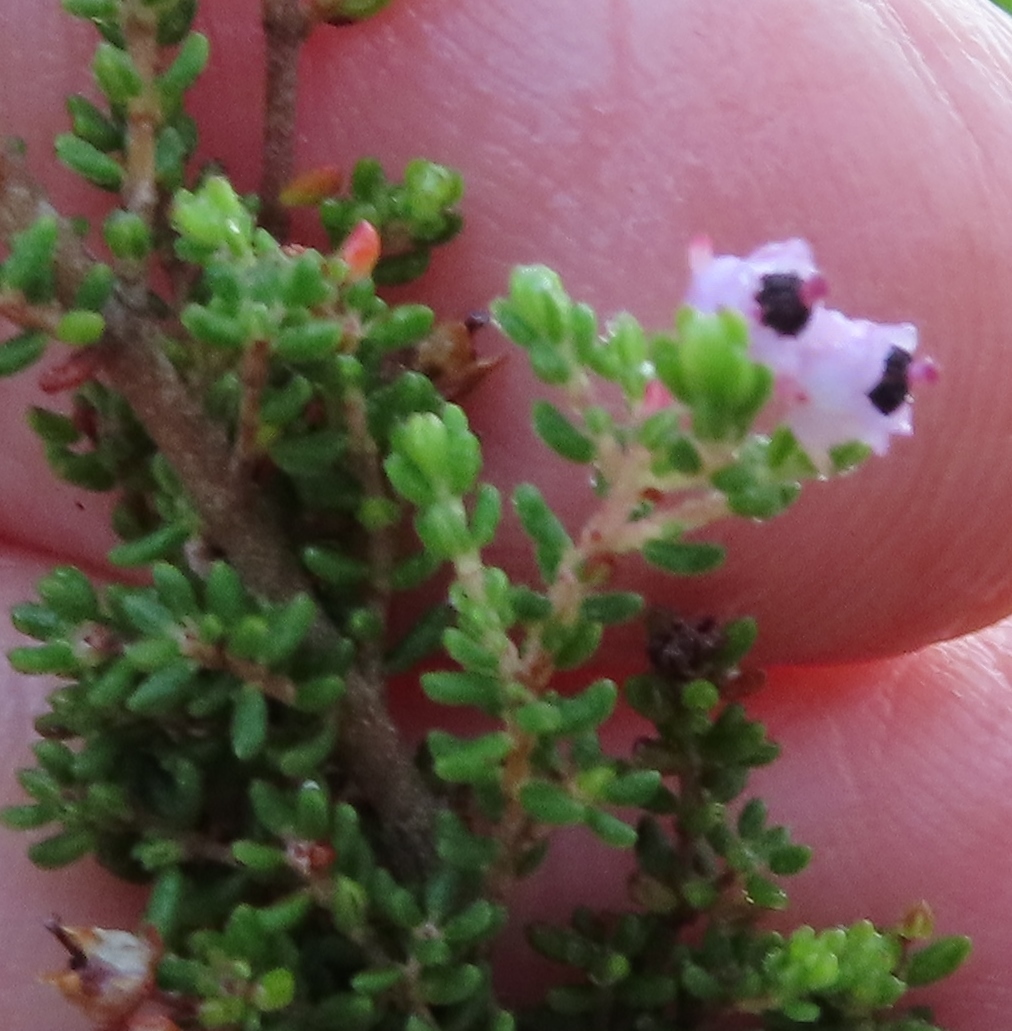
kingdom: Plantae
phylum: Tracheophyta
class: Magnoliopsida
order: Ericales
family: Ericaceae
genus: Erica
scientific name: Erica latifolia
